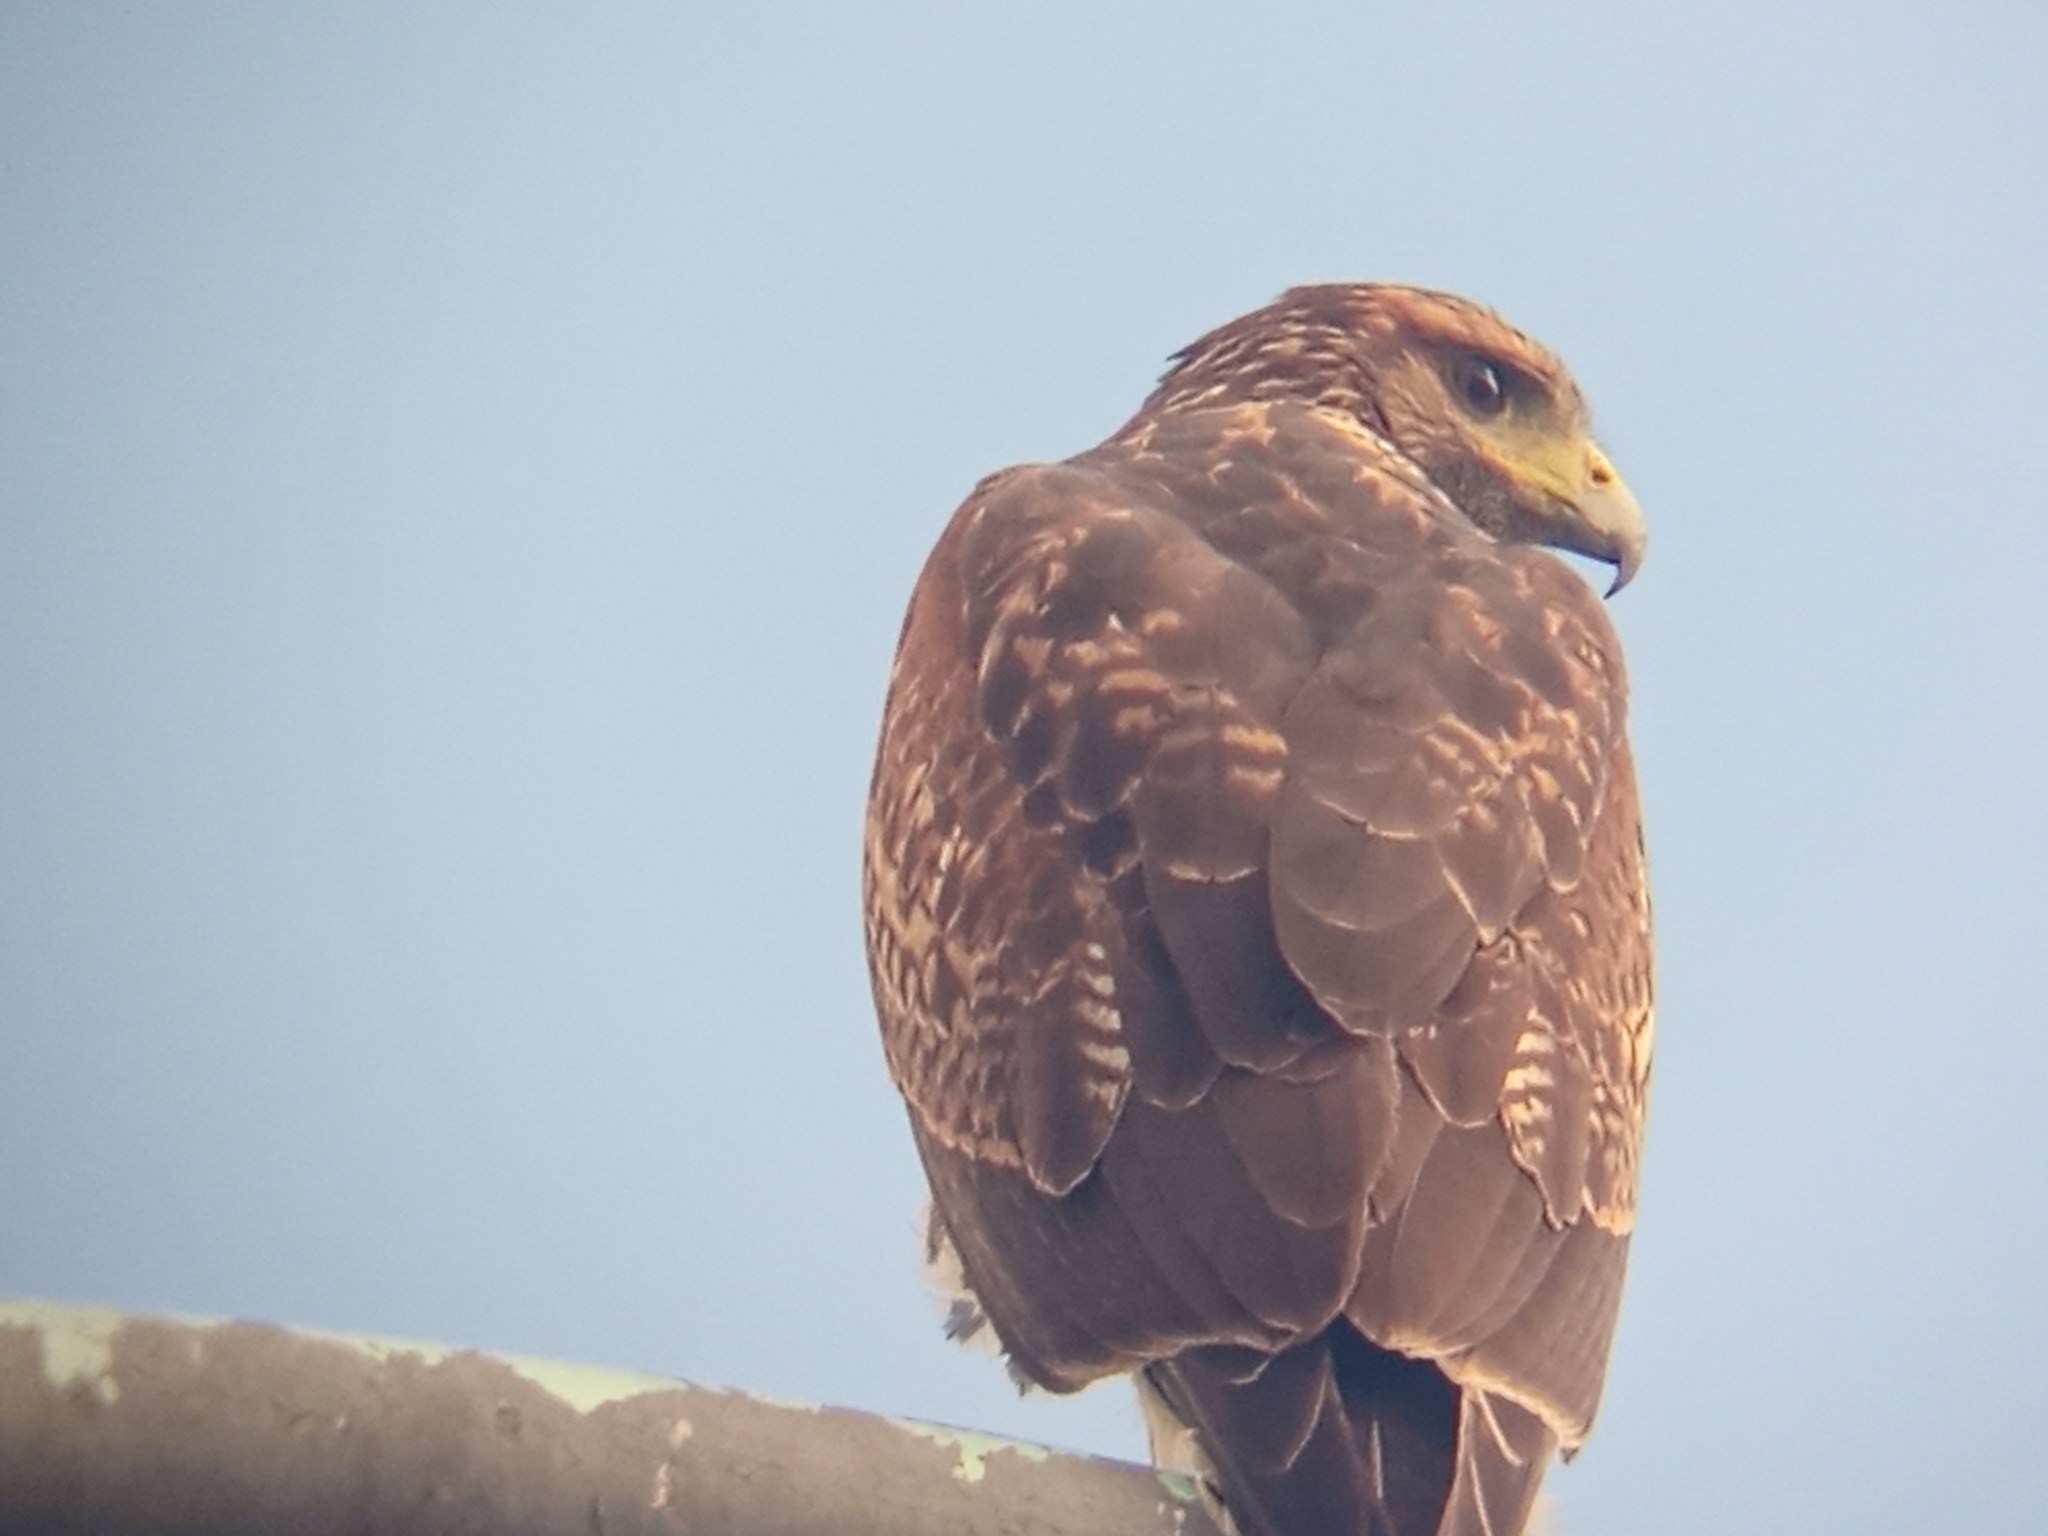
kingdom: Animalia
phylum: Chordata
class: Aves
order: Accipitriformes
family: Accipitridae
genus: Parabuteo
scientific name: Parabuteo unicinctus
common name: Harris's hawk
